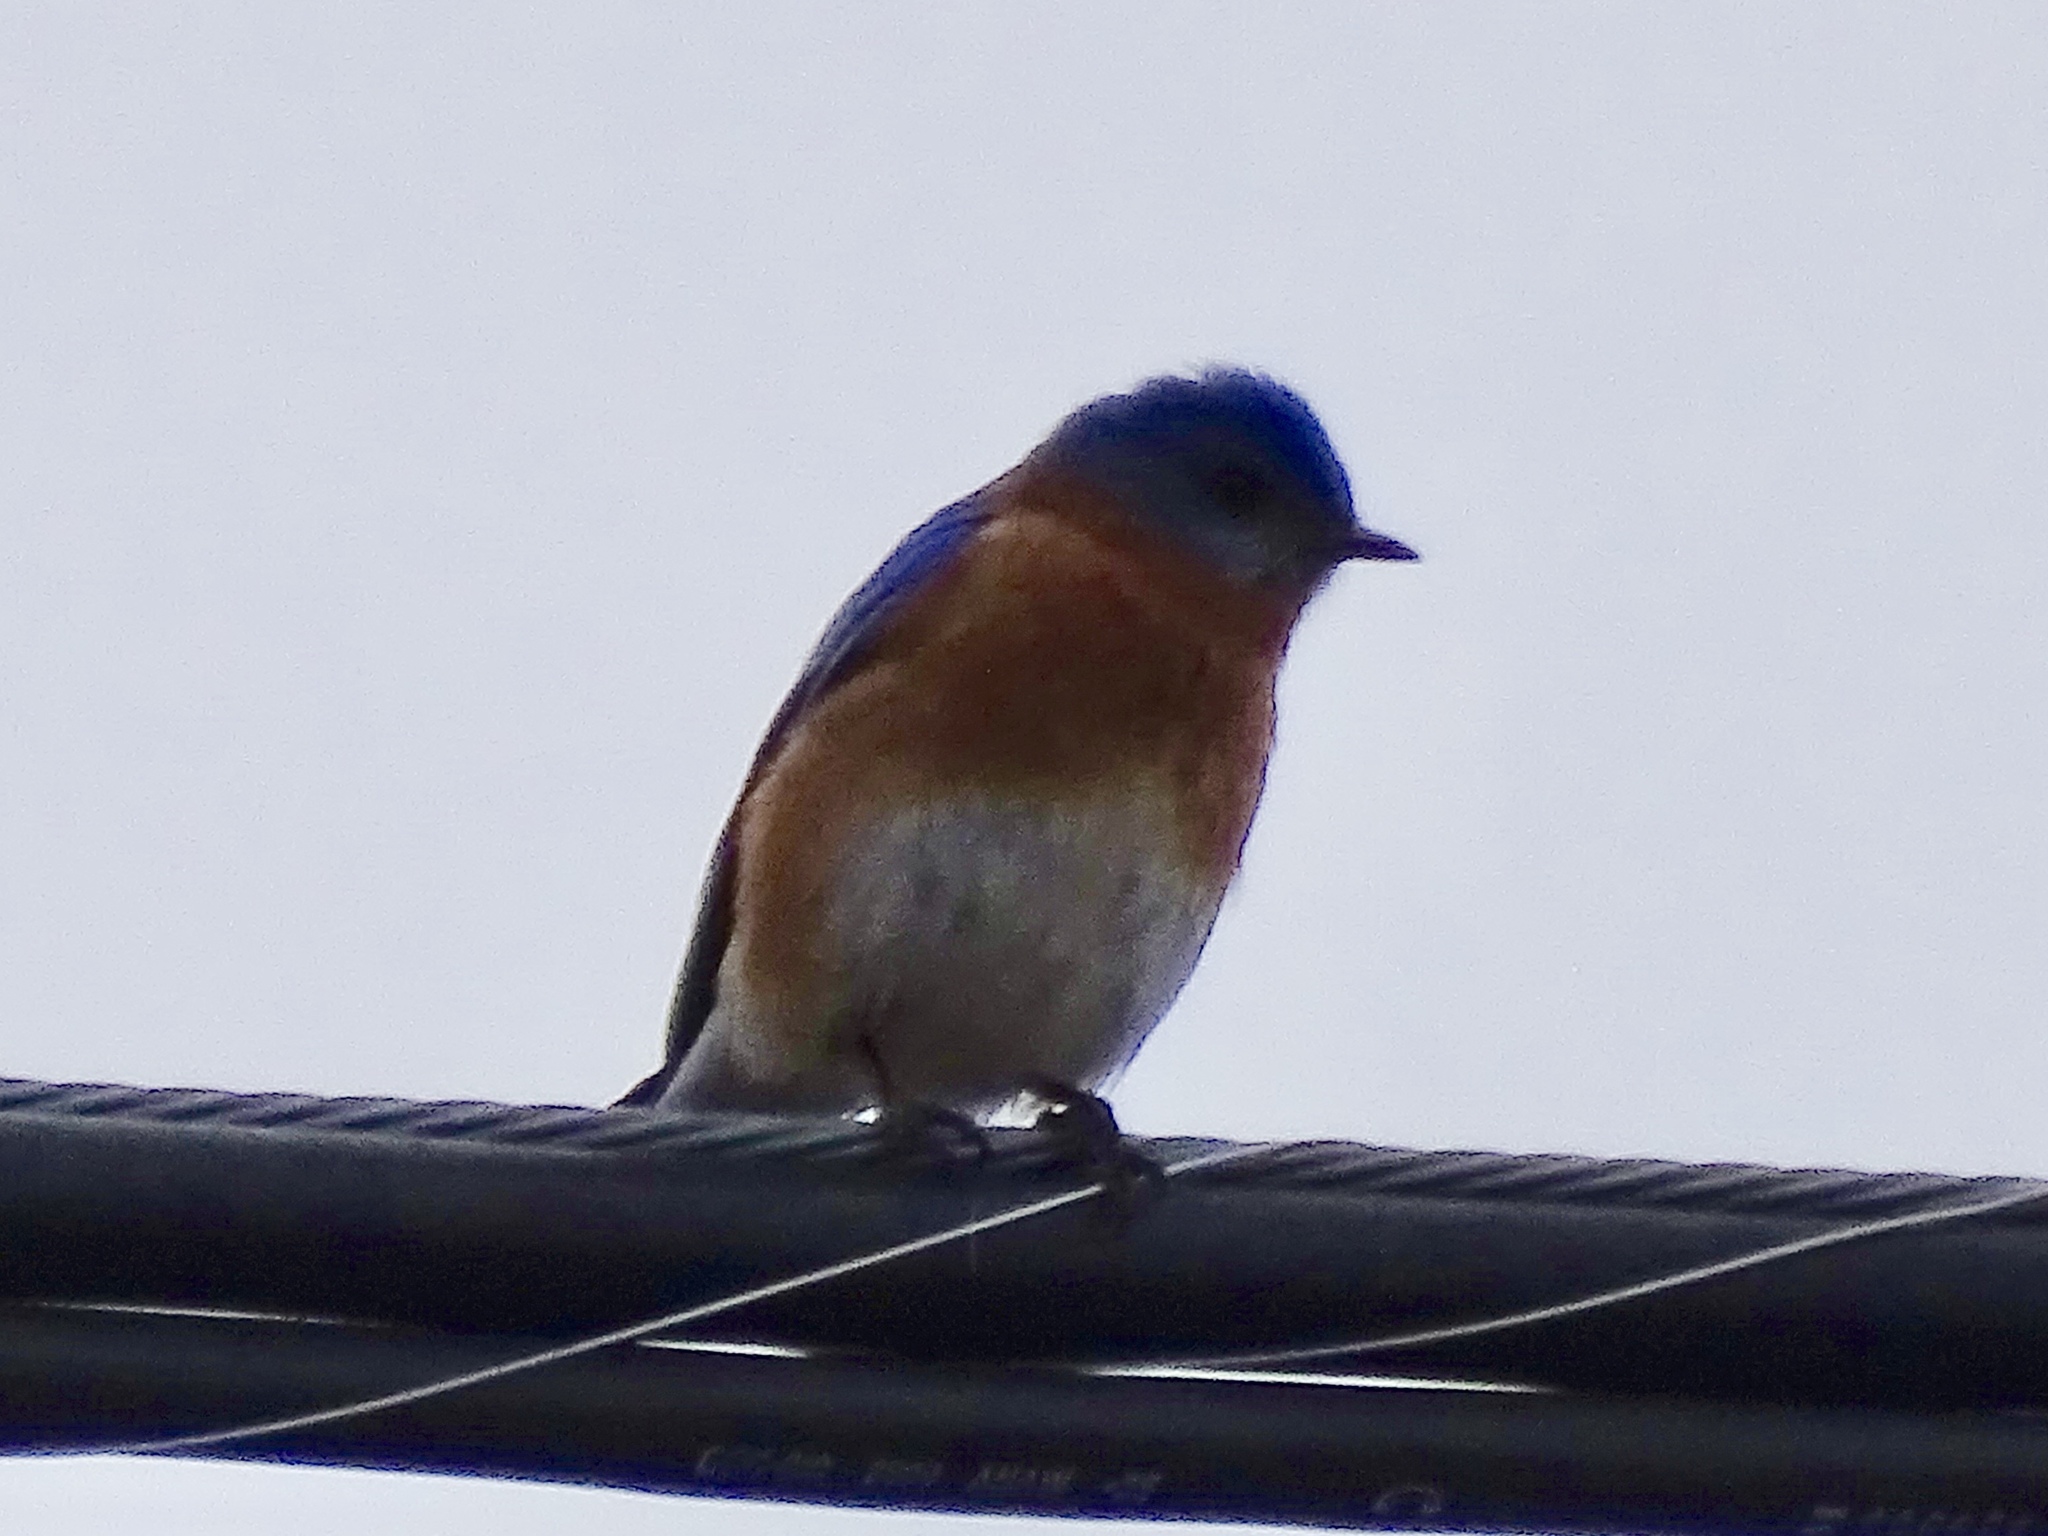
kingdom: Animalia
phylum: Chordata
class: Aves
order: Passeriformes
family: Turdidae
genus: Sialia
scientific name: Sialia sialis
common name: Eastern bluebird
